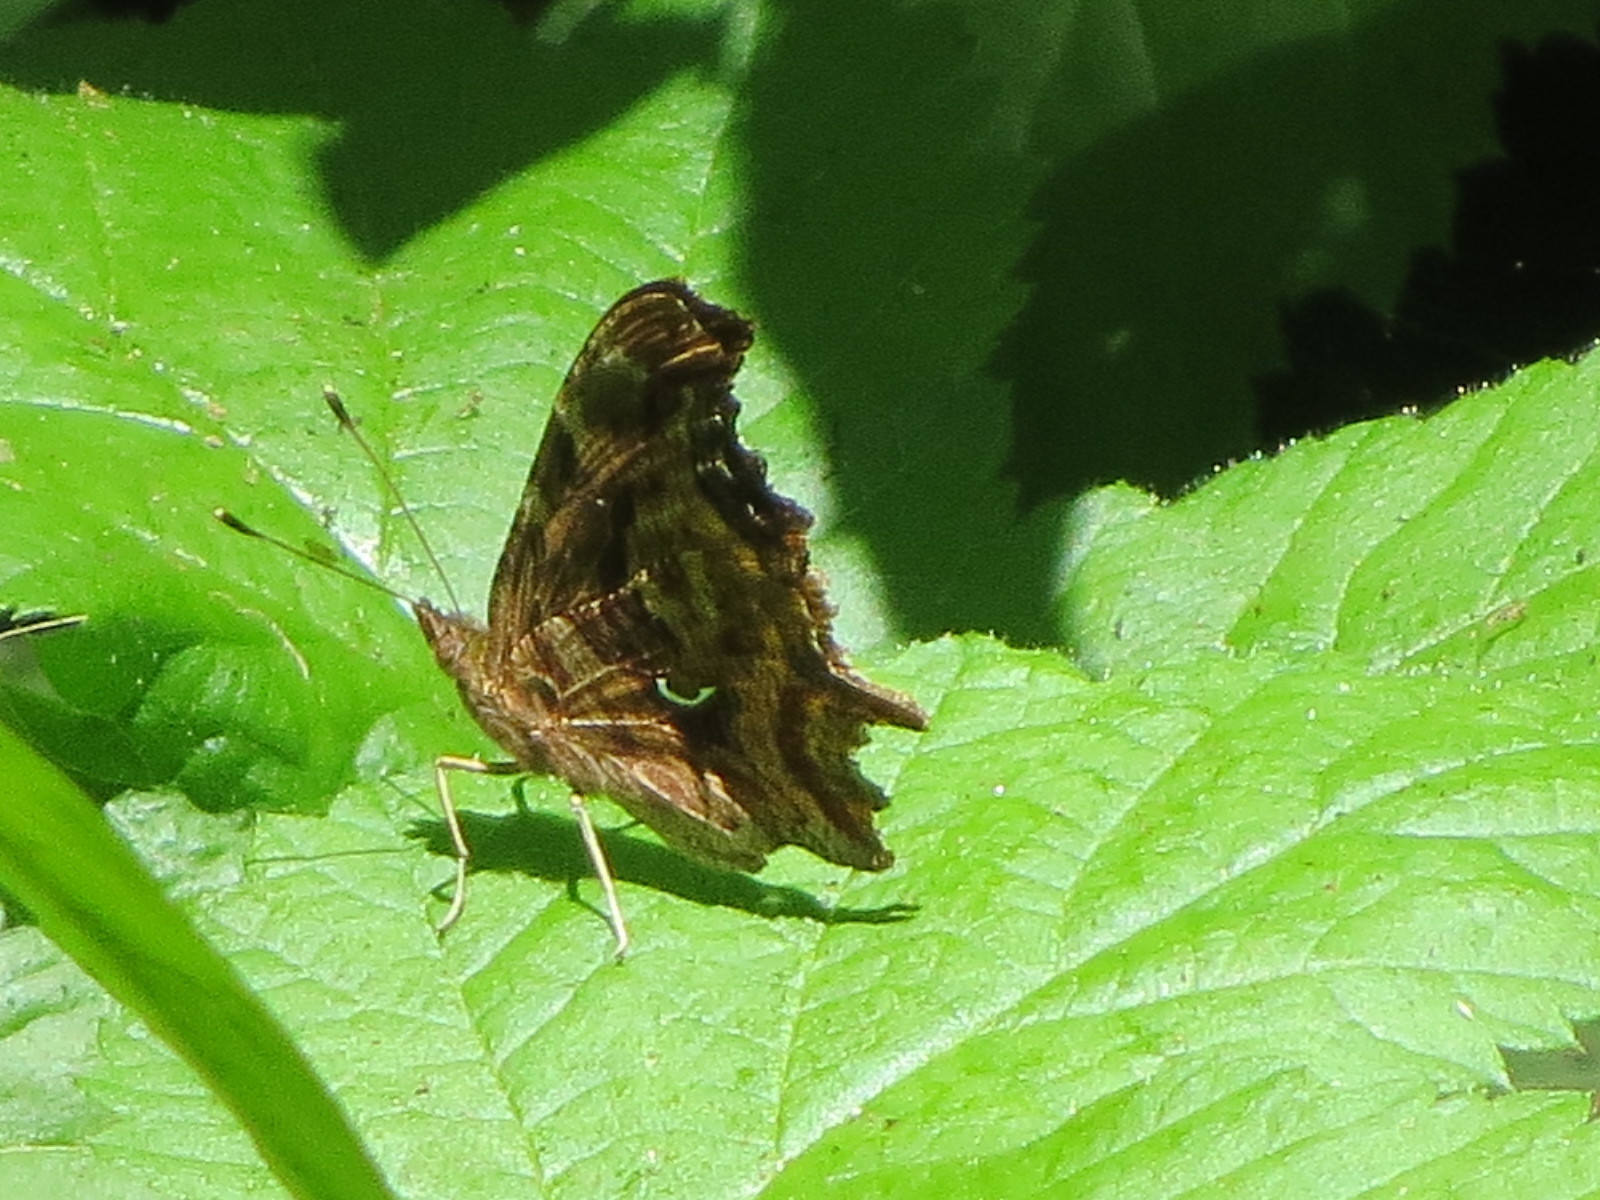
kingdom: Animalia
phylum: Arthropoda
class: Insecta
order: Lepidoptera
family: Nymphalidae
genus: Polygonia
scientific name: Polygonia satyrus
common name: Satyr angle wing
